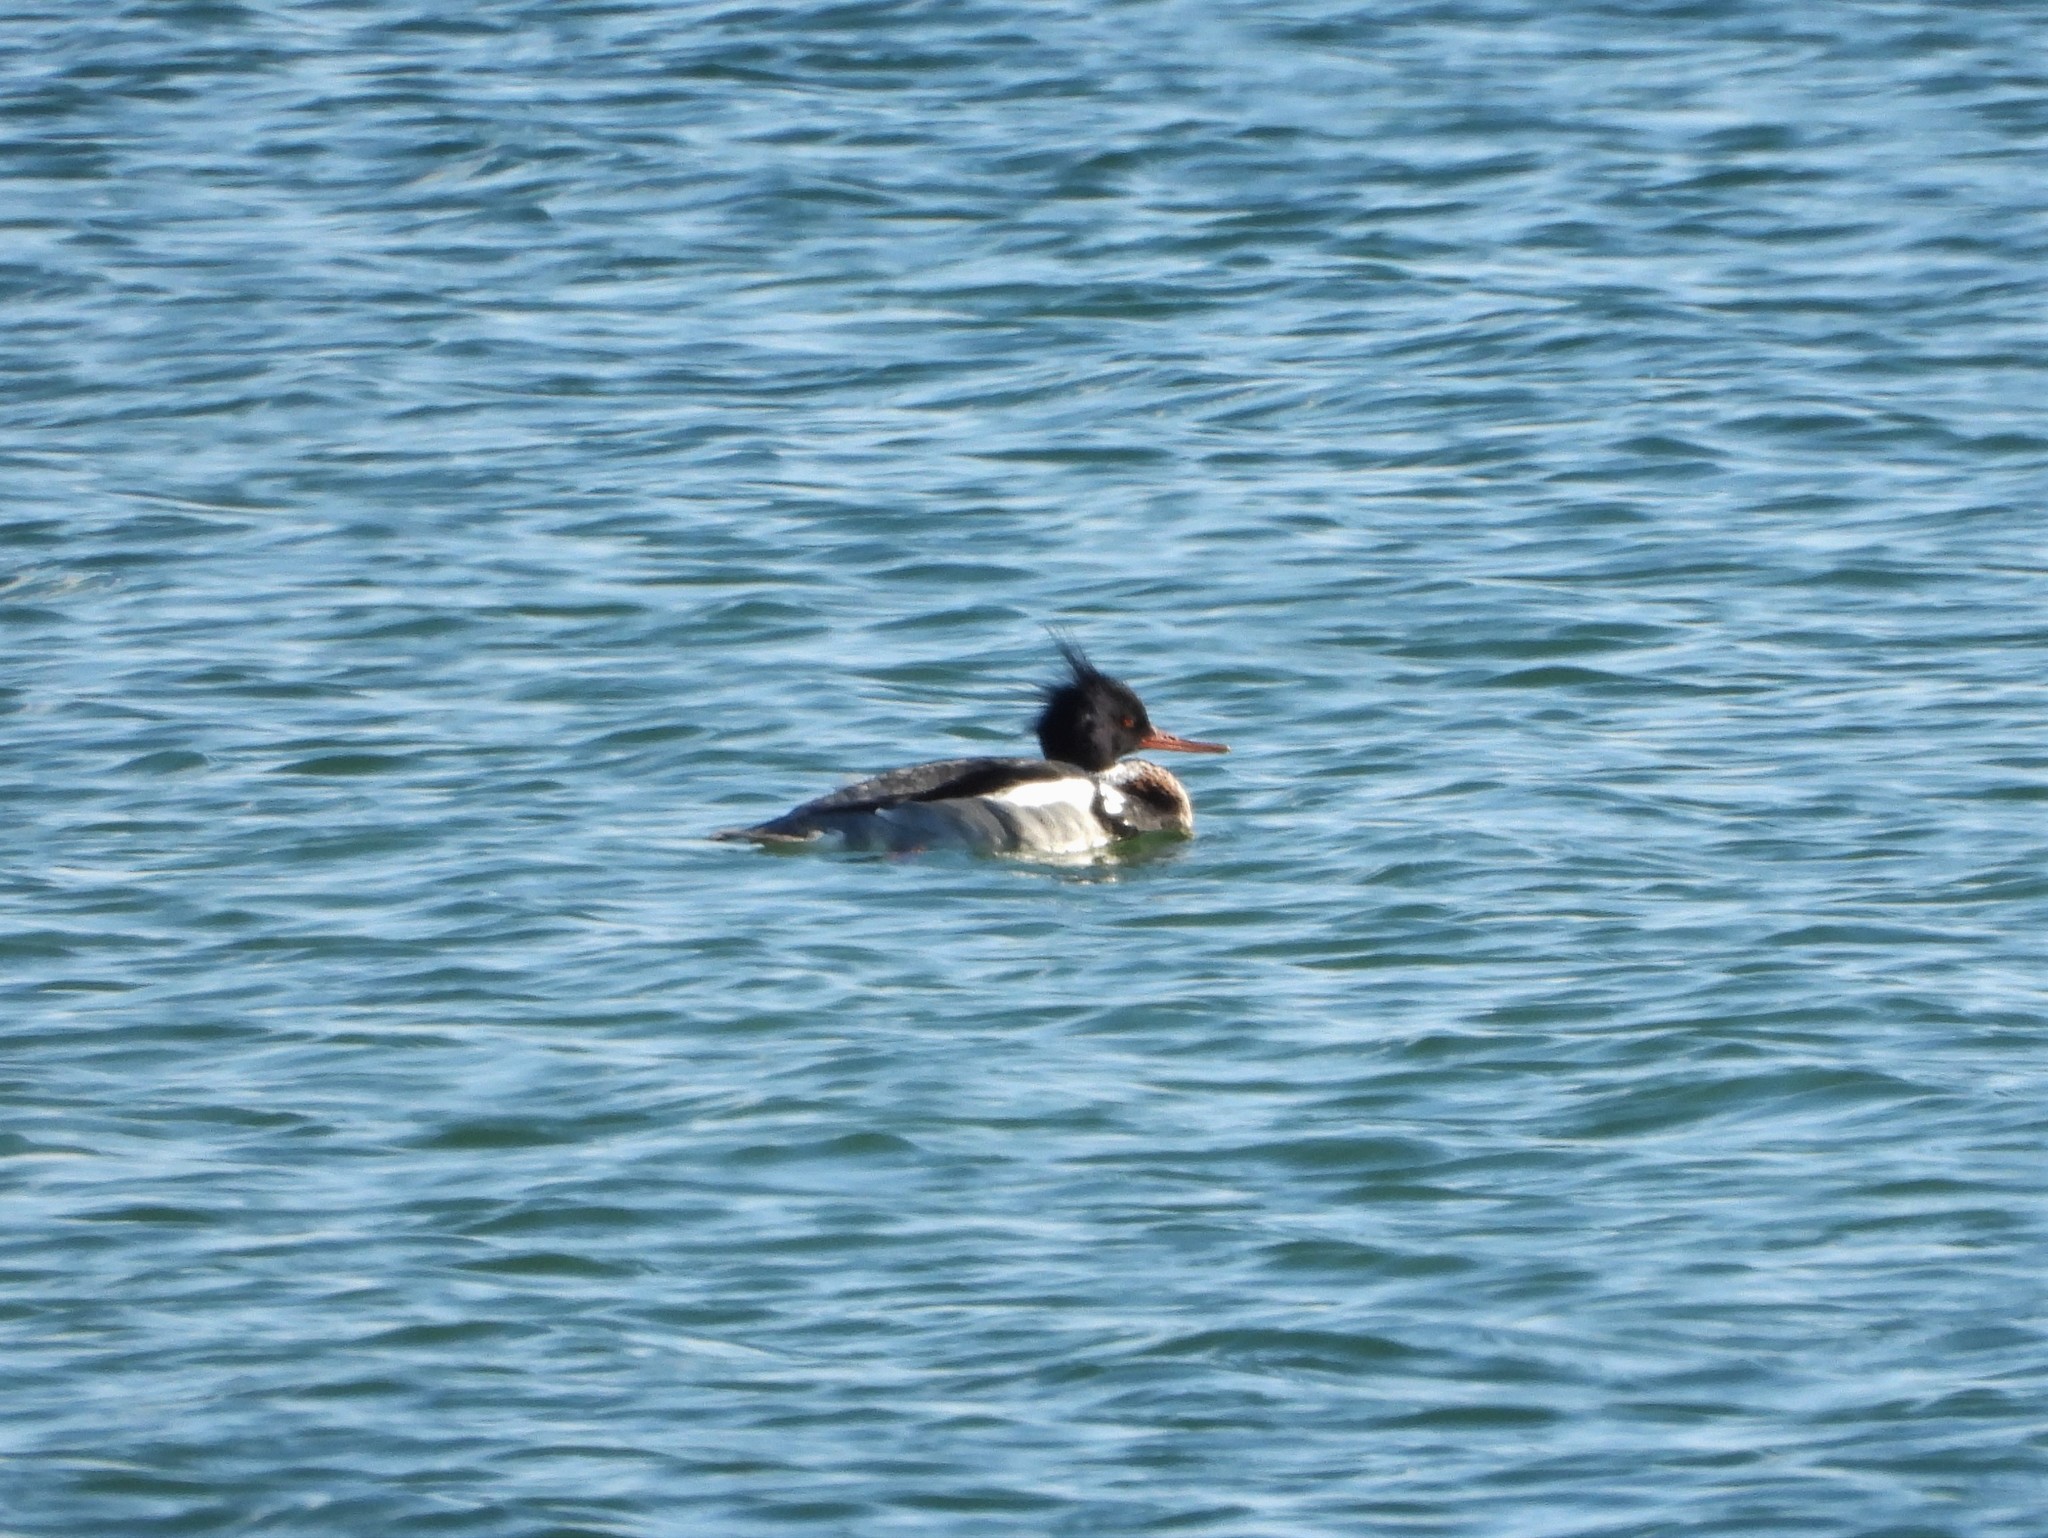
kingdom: Animalia
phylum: Chordata
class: Aves
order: Anseriformes
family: Anatidae
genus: Mergus
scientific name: Mergus serrator
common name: Red-breasted merganser
